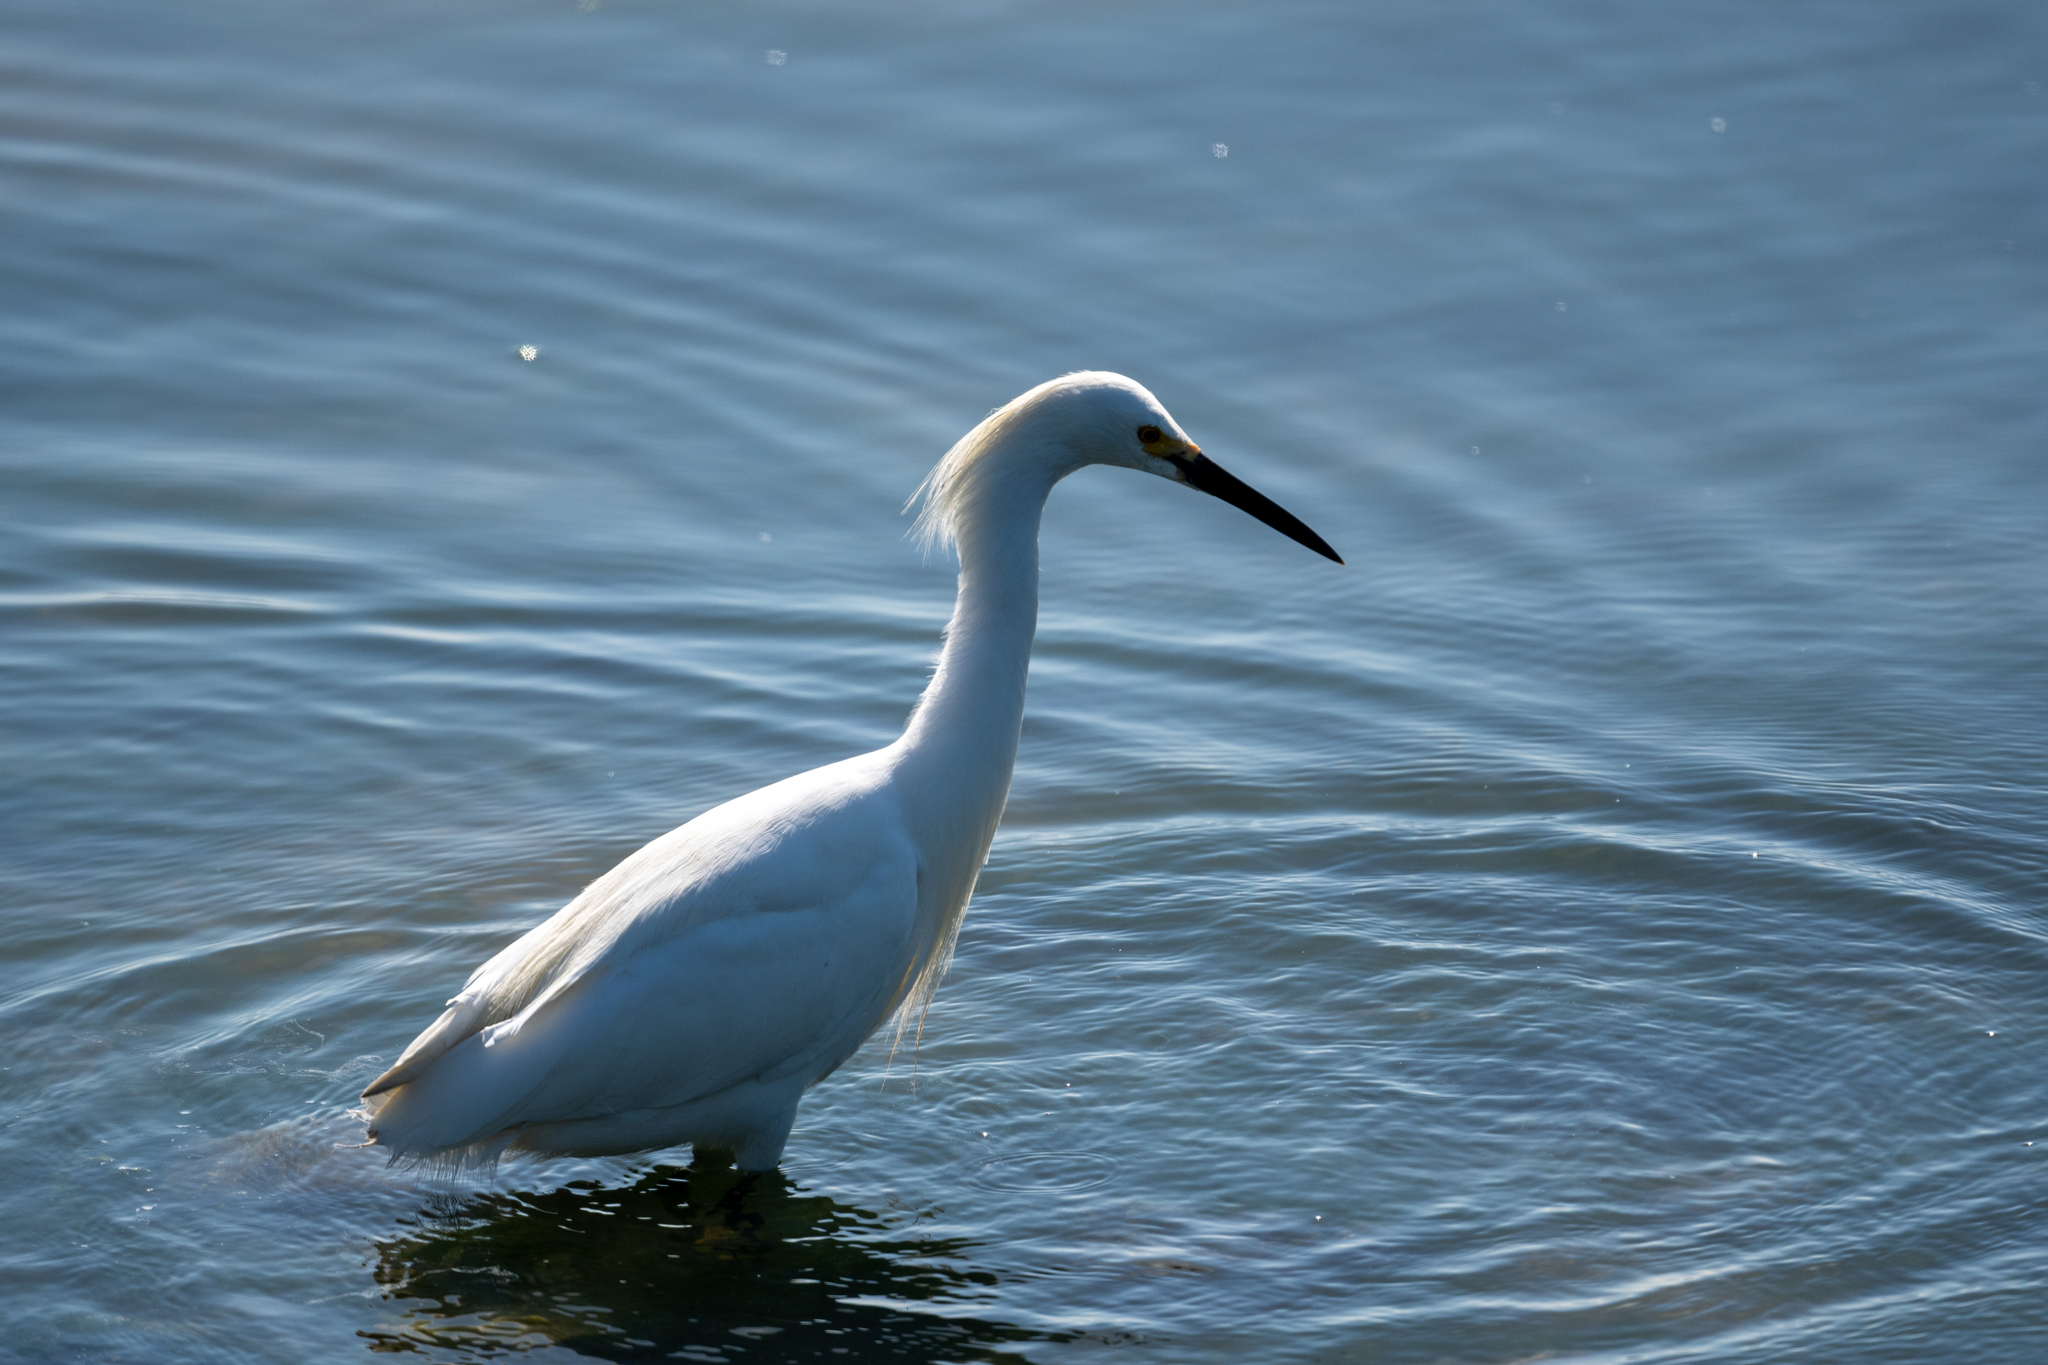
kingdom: Animalia
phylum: Chordata
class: Aves
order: Pelecaniformes
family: Ardeidae
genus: Egretta
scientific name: Egretta thula
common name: Snowy egret
